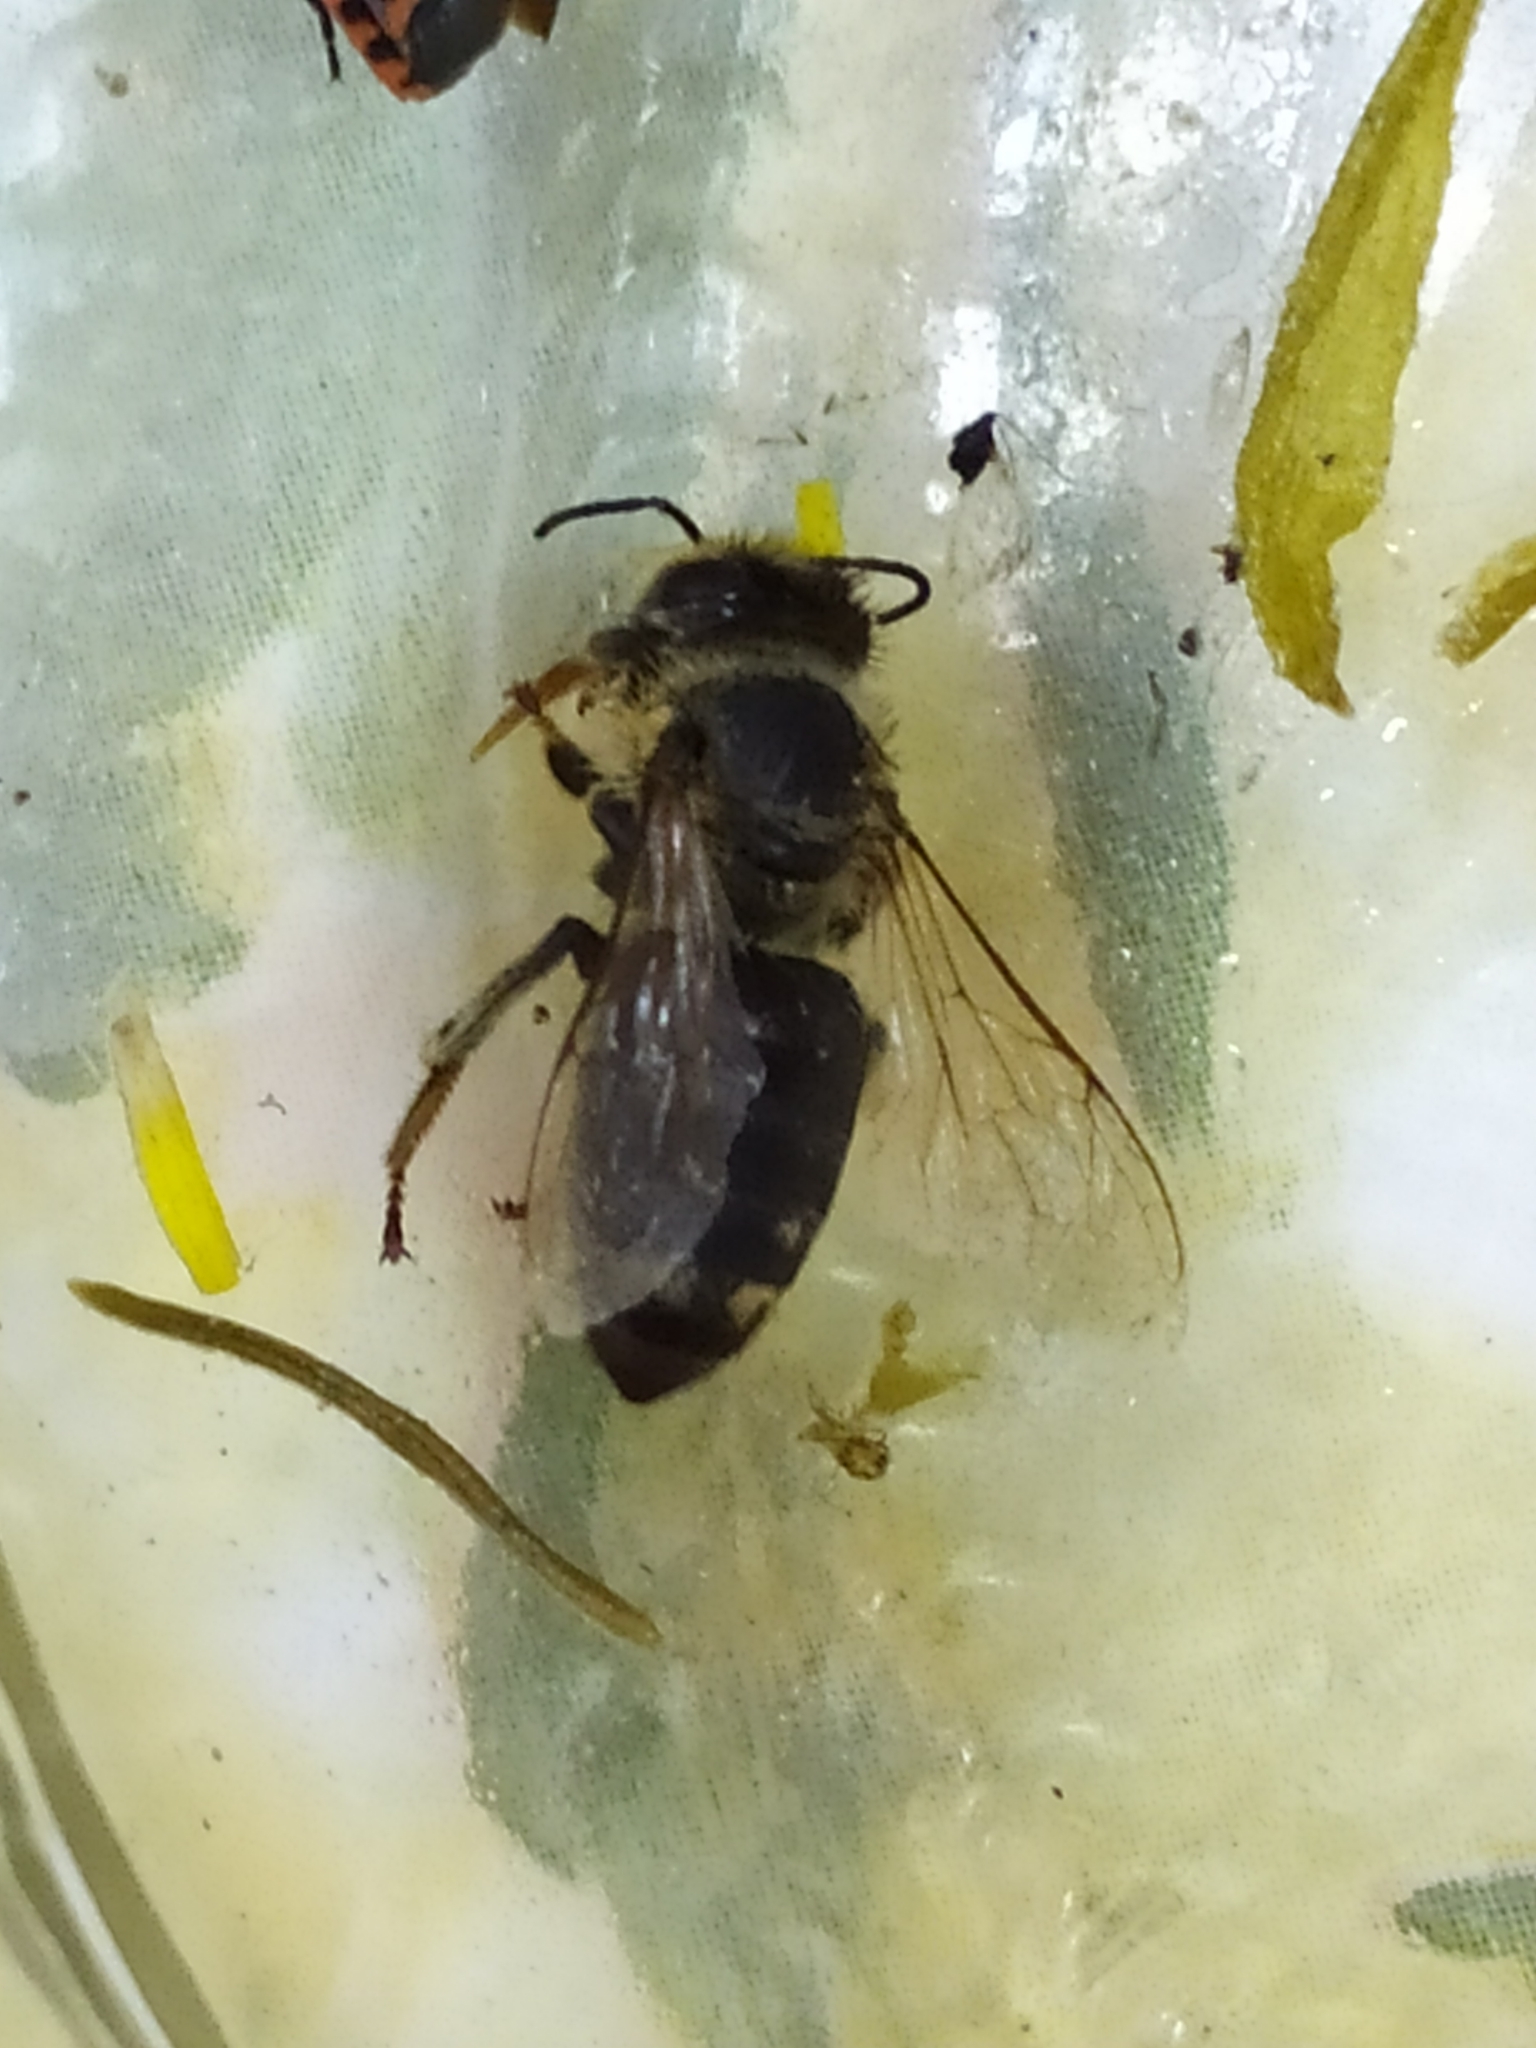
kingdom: Animalia
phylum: Arthropoda
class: Insecta
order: Hymenoptera
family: Apidae
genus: Apis
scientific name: Apis mellifera
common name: Honey bee
